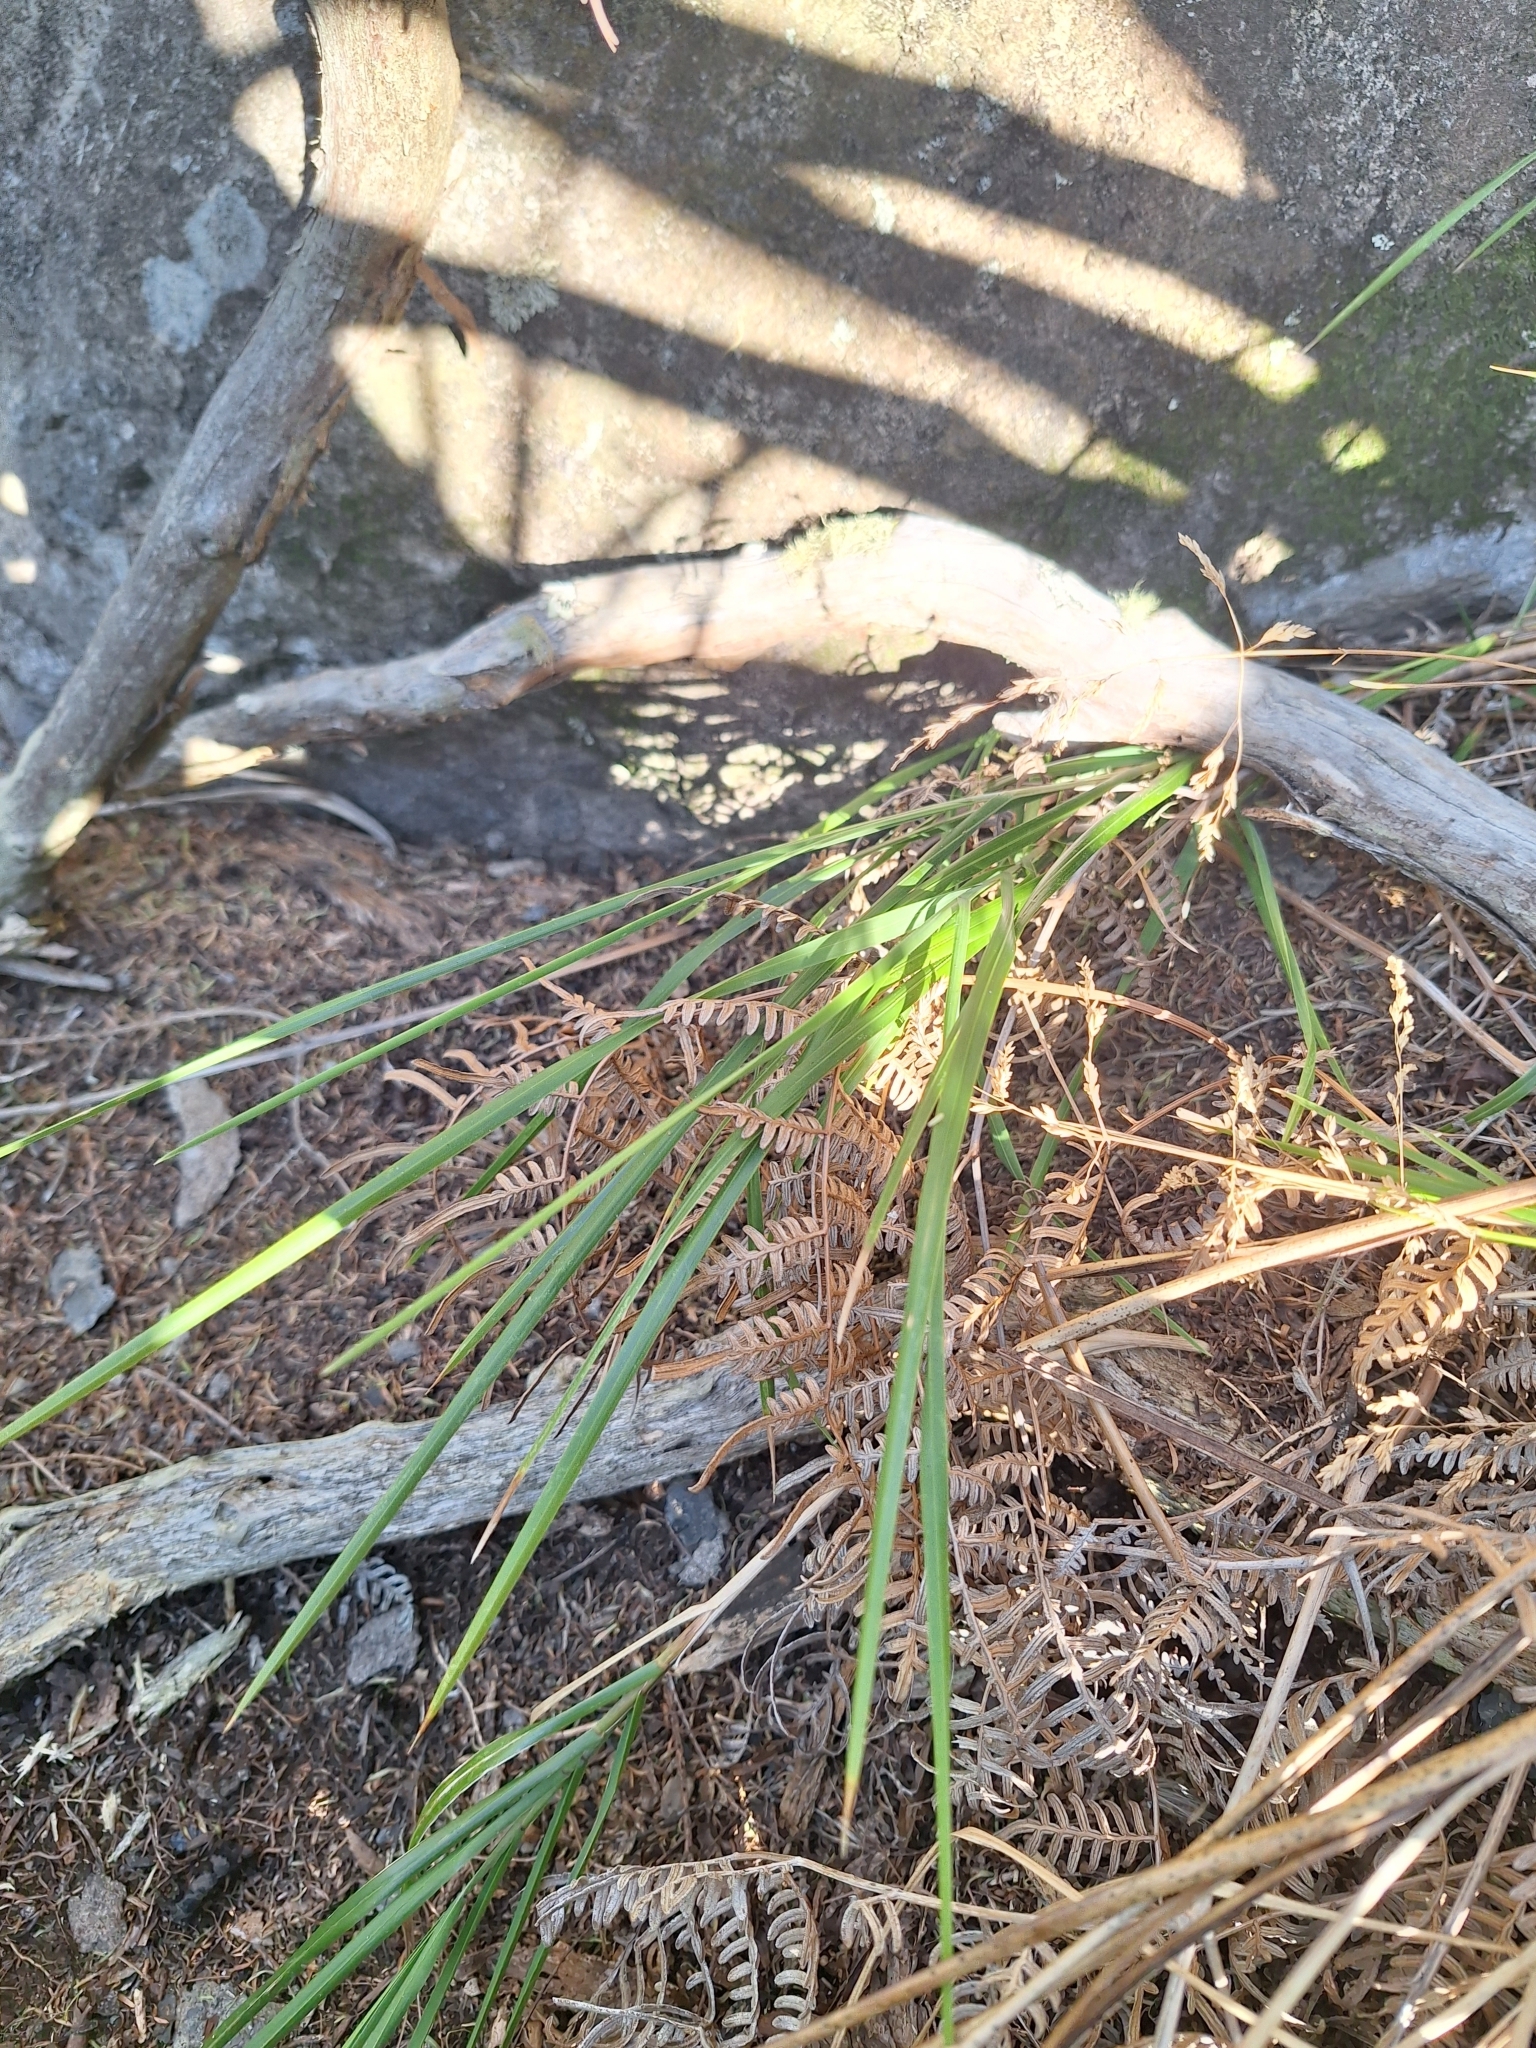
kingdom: Plantae
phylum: Tracheophyta
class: Liliopsida
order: Poales
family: Poaceae
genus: Poa
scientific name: Poa anceps
